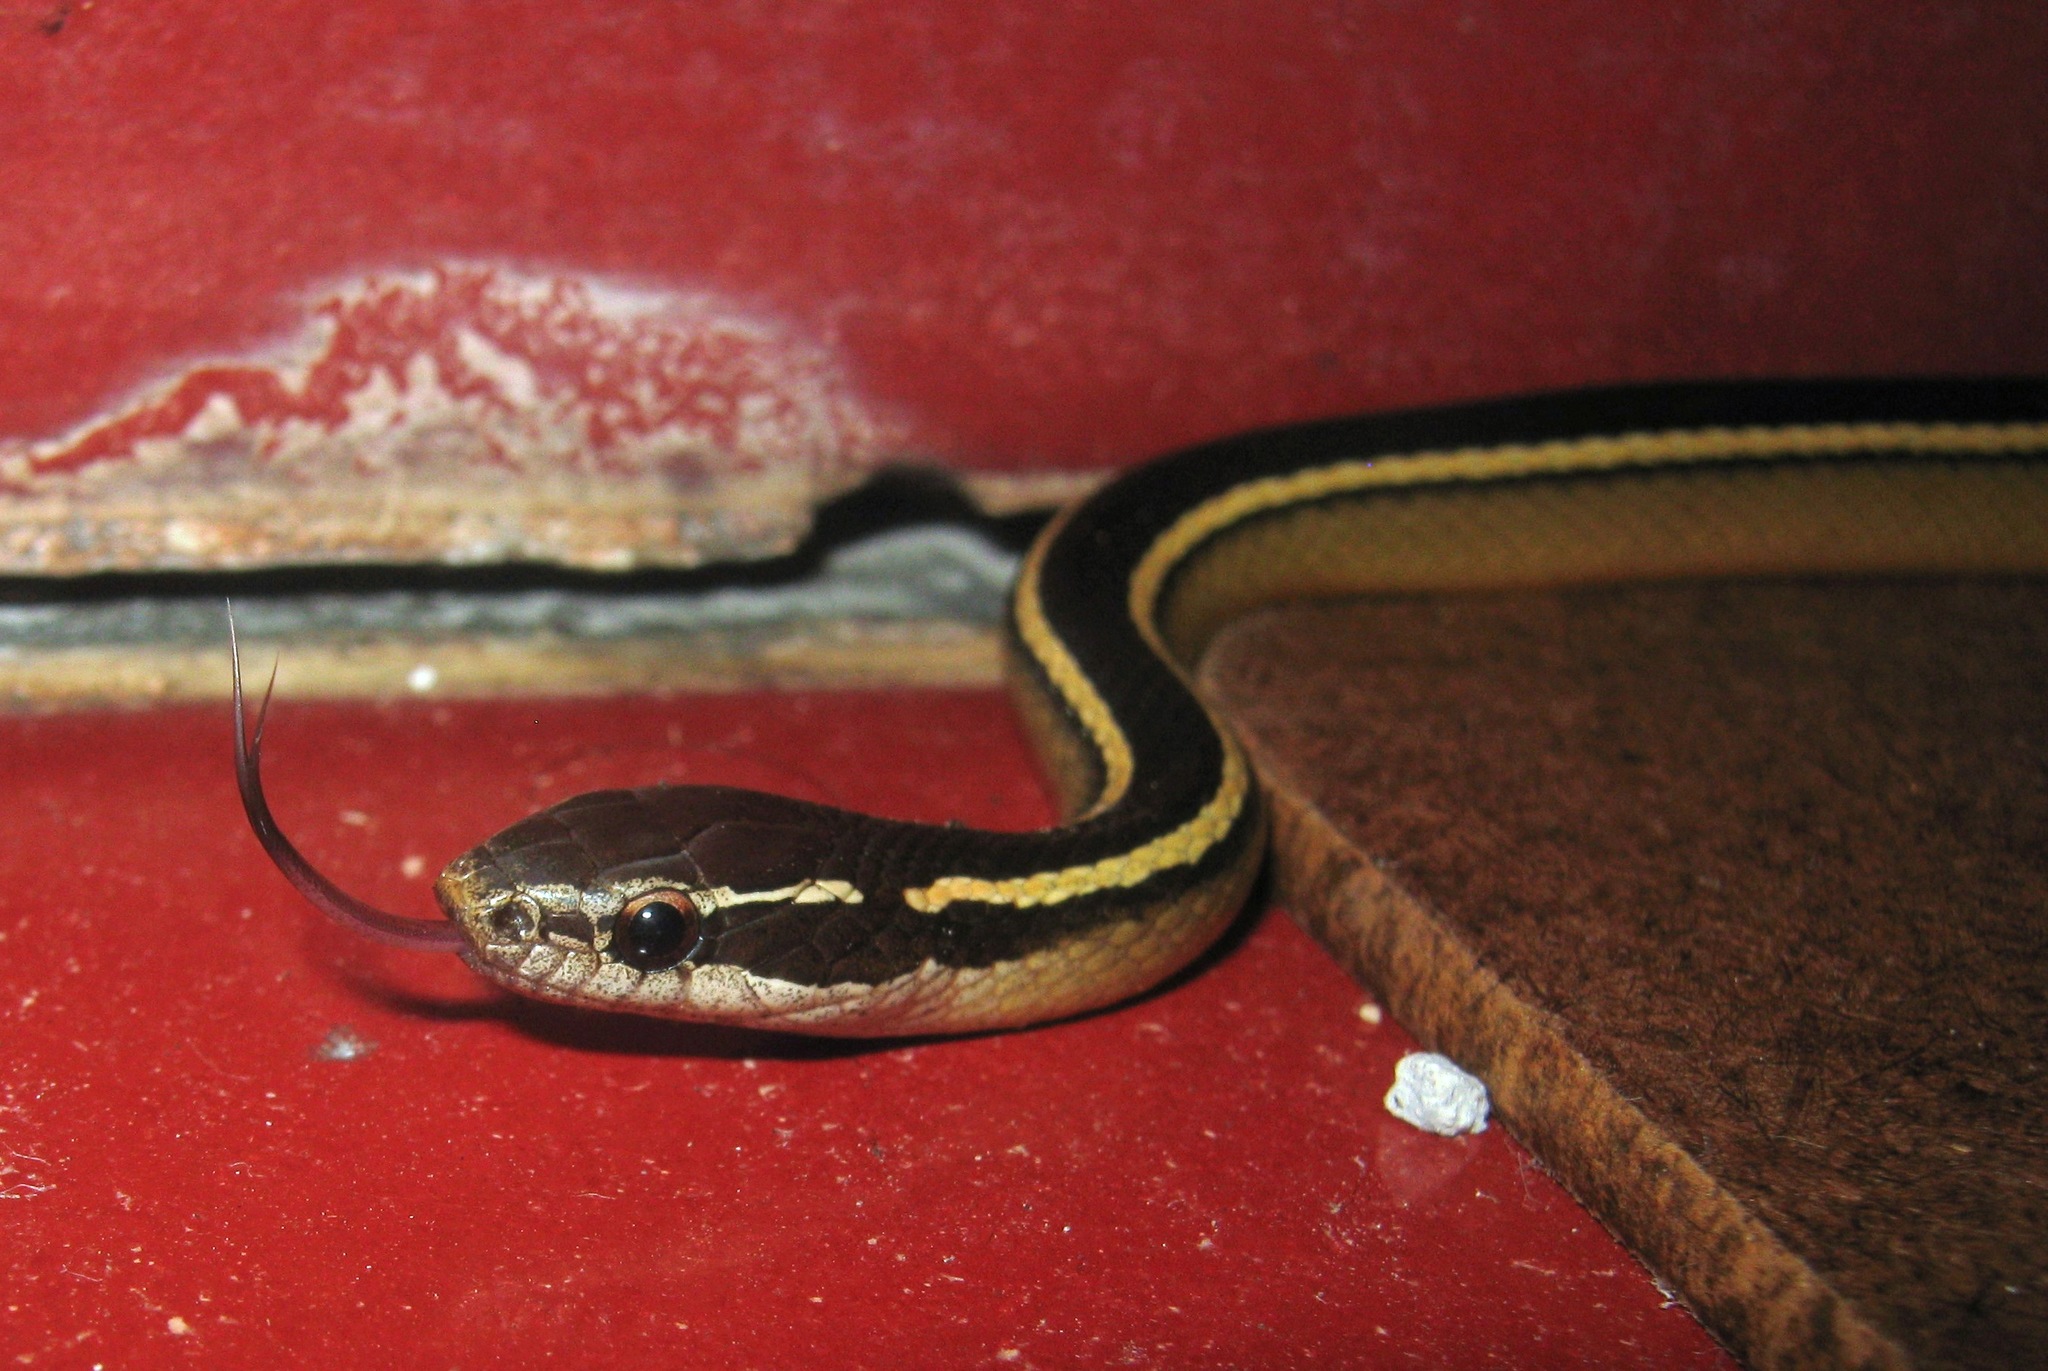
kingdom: Animalia
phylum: Chordata
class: Squamata
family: Colubridae
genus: Coniophanes
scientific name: Coniophanes schmidti
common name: Faded black-striped snake
